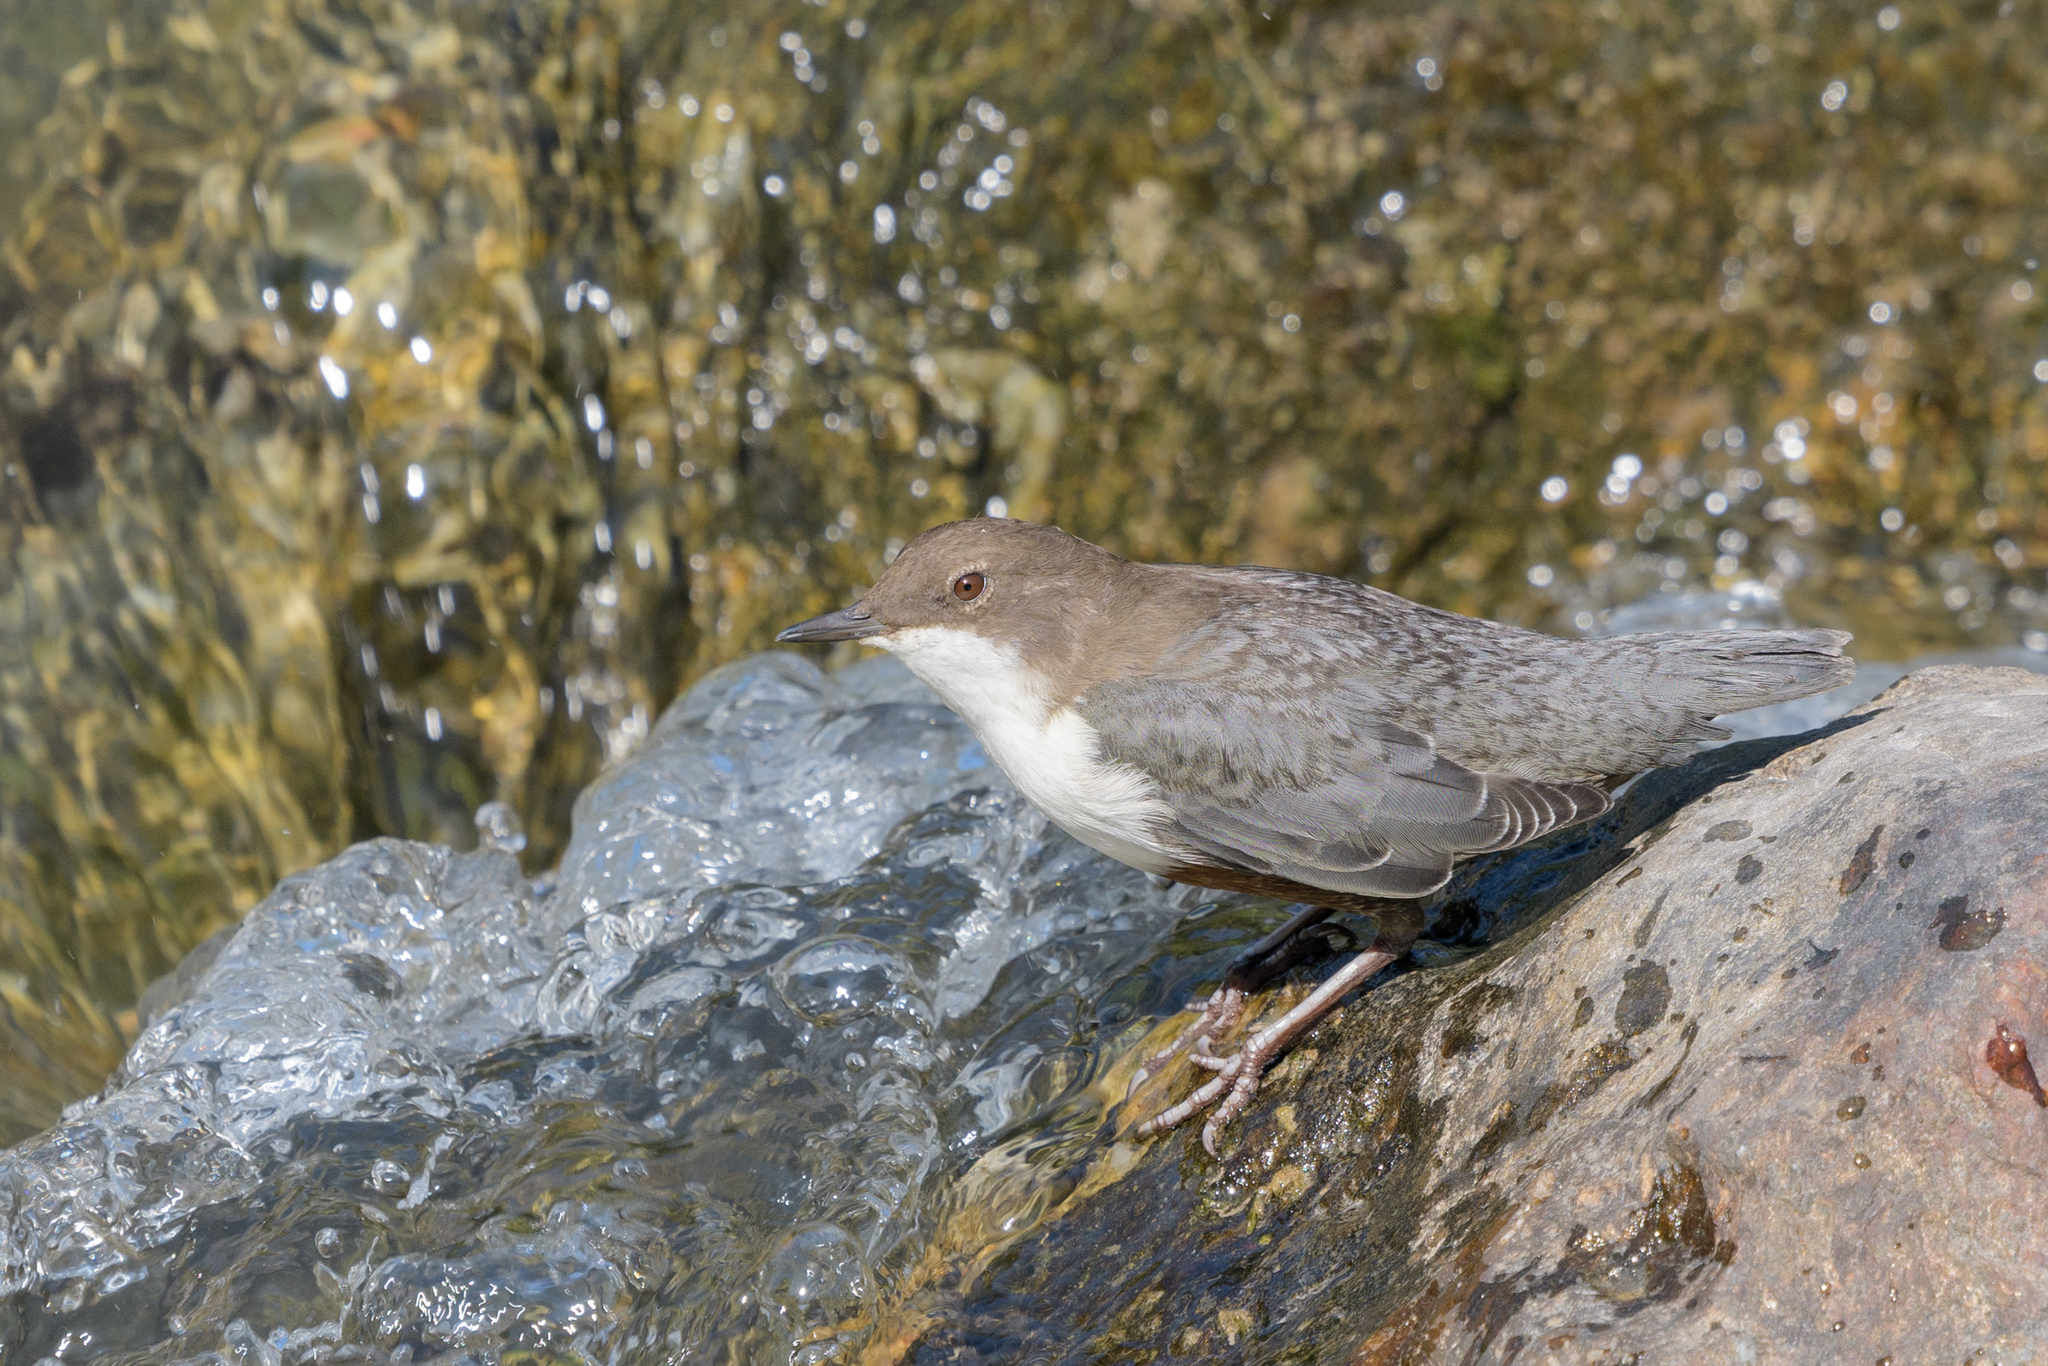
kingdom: Animalia
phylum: Chordata
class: Aves
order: Passeriformes
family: Cinclidae
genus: Cinclus
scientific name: Cinclus cinclus
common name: White-throated dipper
